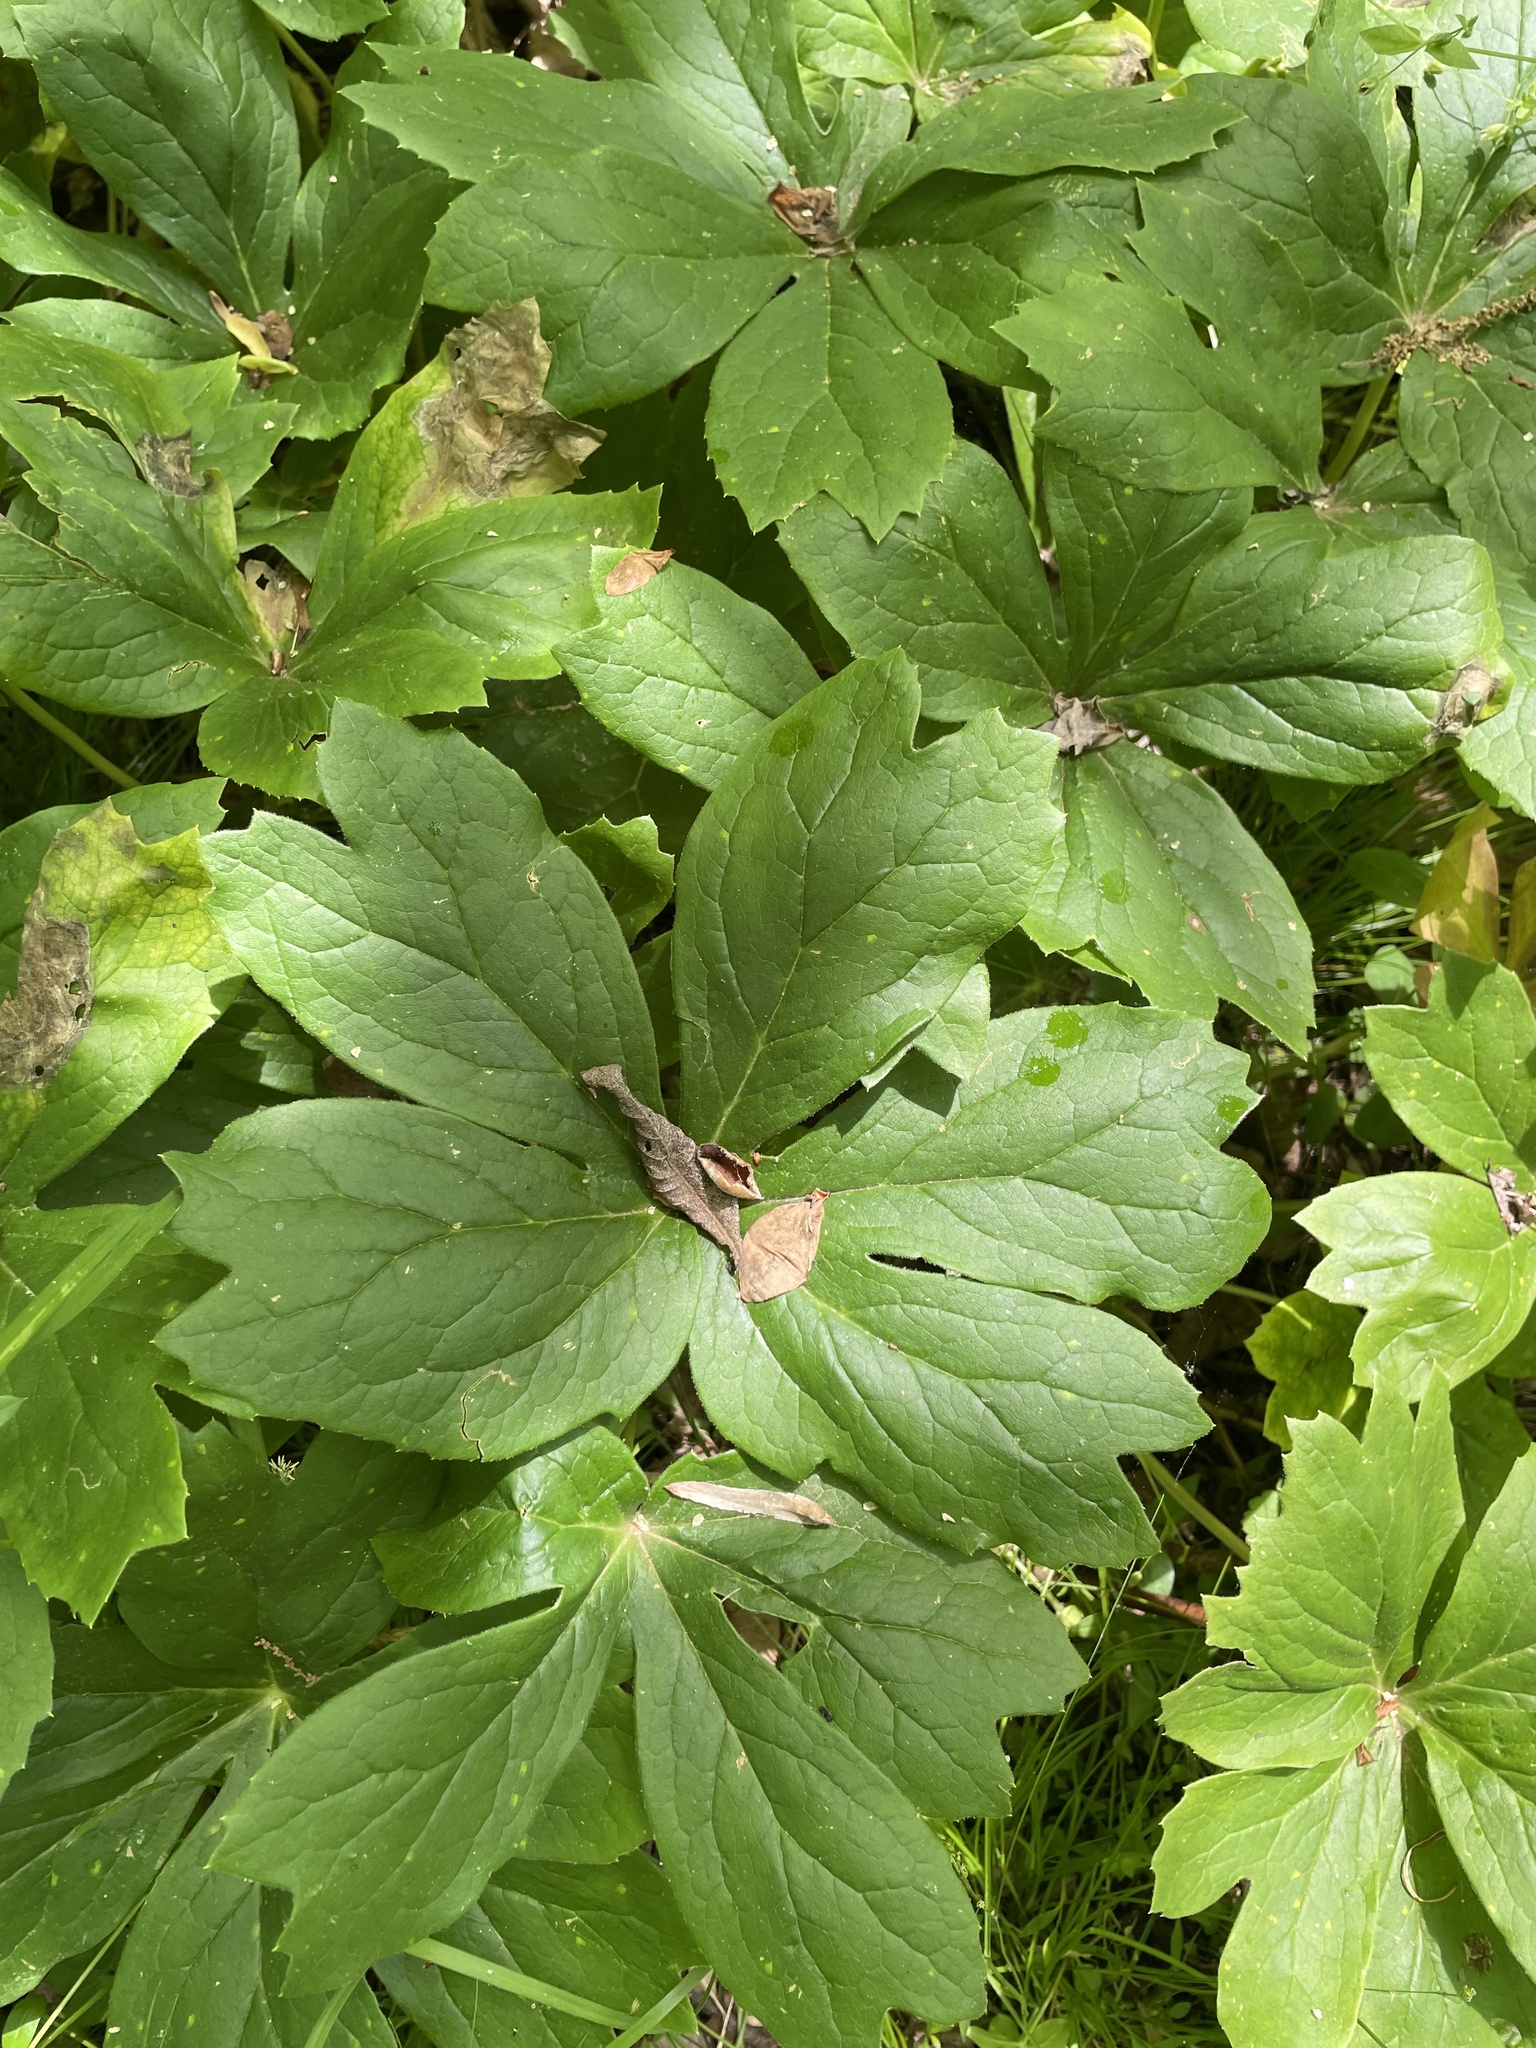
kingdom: Plantae
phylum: Tracheophyta
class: Magnoliopsida
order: Ranunculales
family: Berberidaceae
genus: Podophyllum
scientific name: Podophyllum peltatum
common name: Wild mandrake
